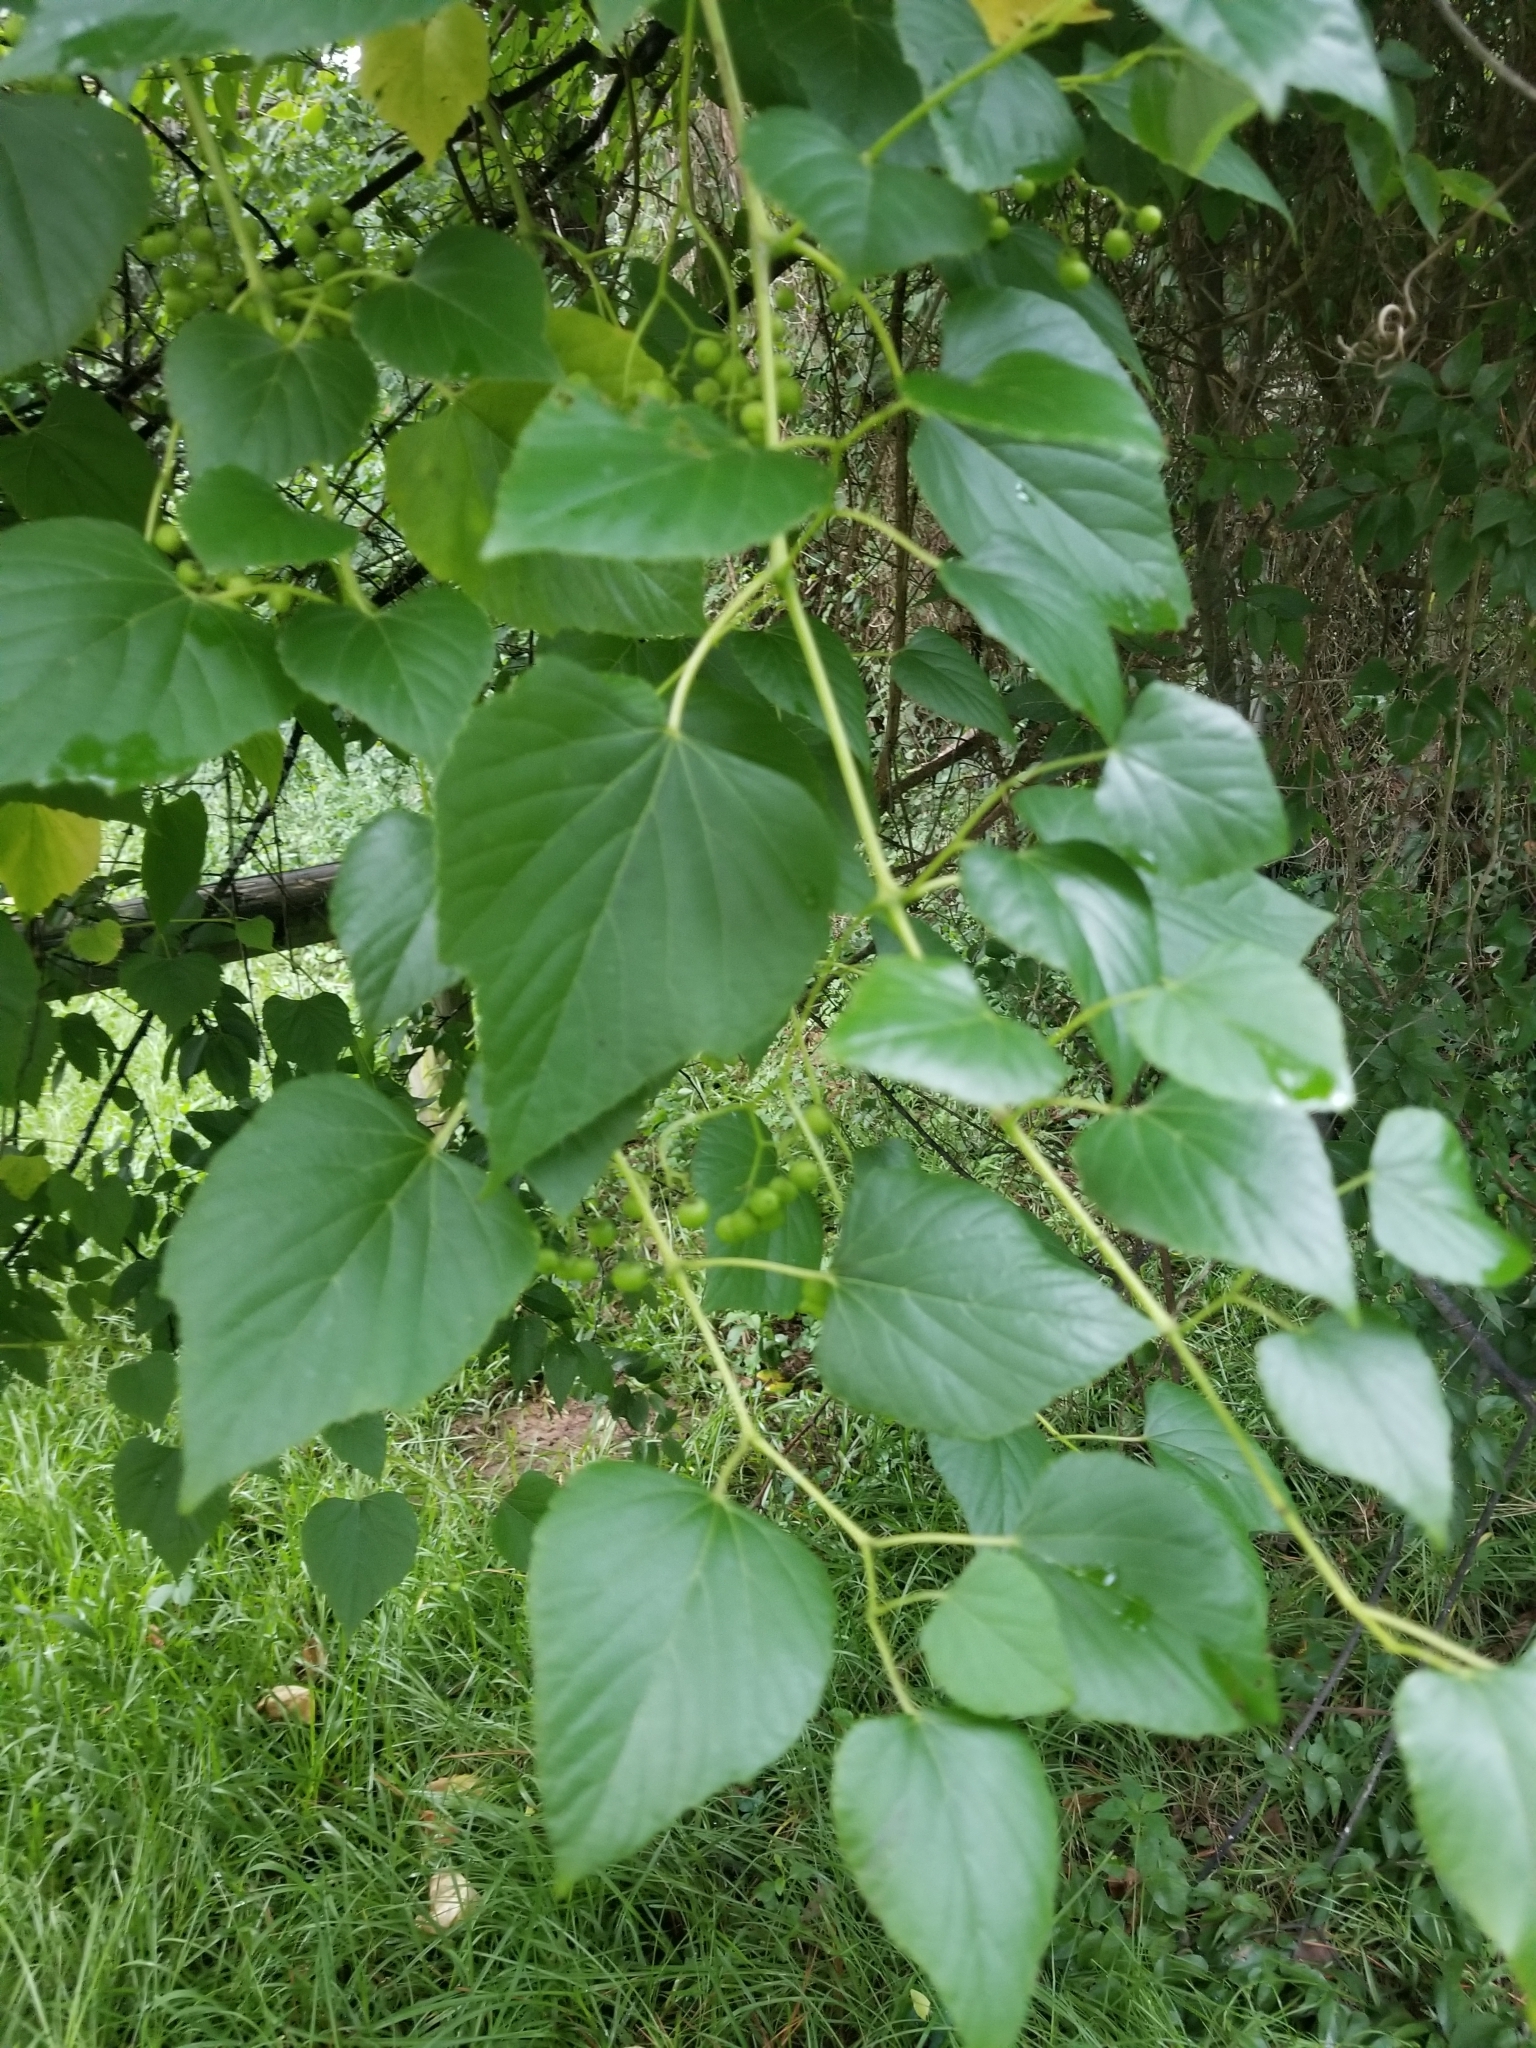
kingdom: Plantae
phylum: Tracheophyta
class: Magnoliopsida
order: Vitales
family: Vitaceae
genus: Ampelopsis
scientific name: Ampelopsis cordata
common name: Heart-leaf ampelopsis
